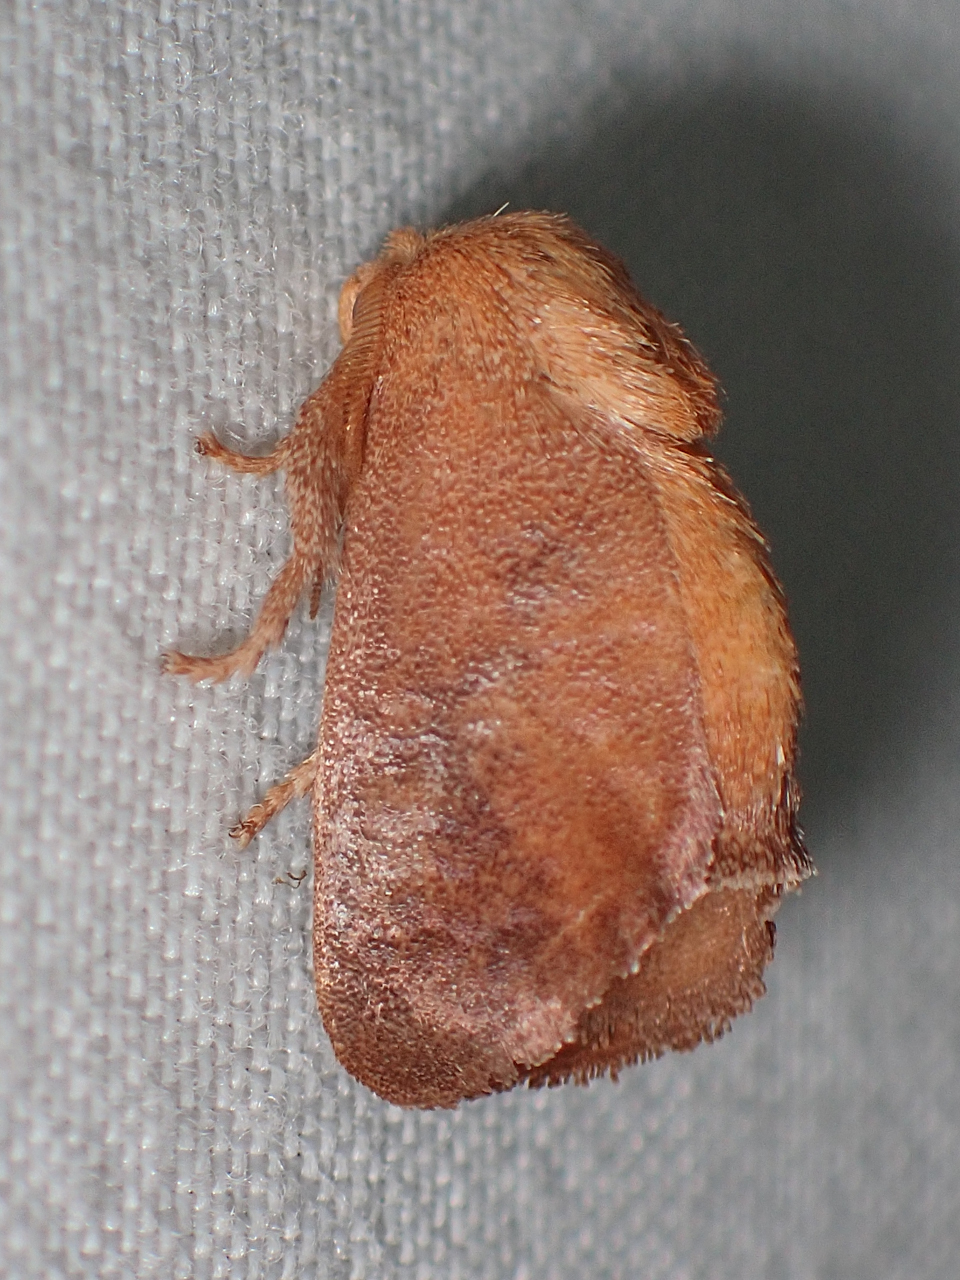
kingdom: Animalia
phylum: Arthropoda
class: Insecta
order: Lepidoptera
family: Limacodidae
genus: Isa
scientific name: Isa textula
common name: Crowned slug moth
